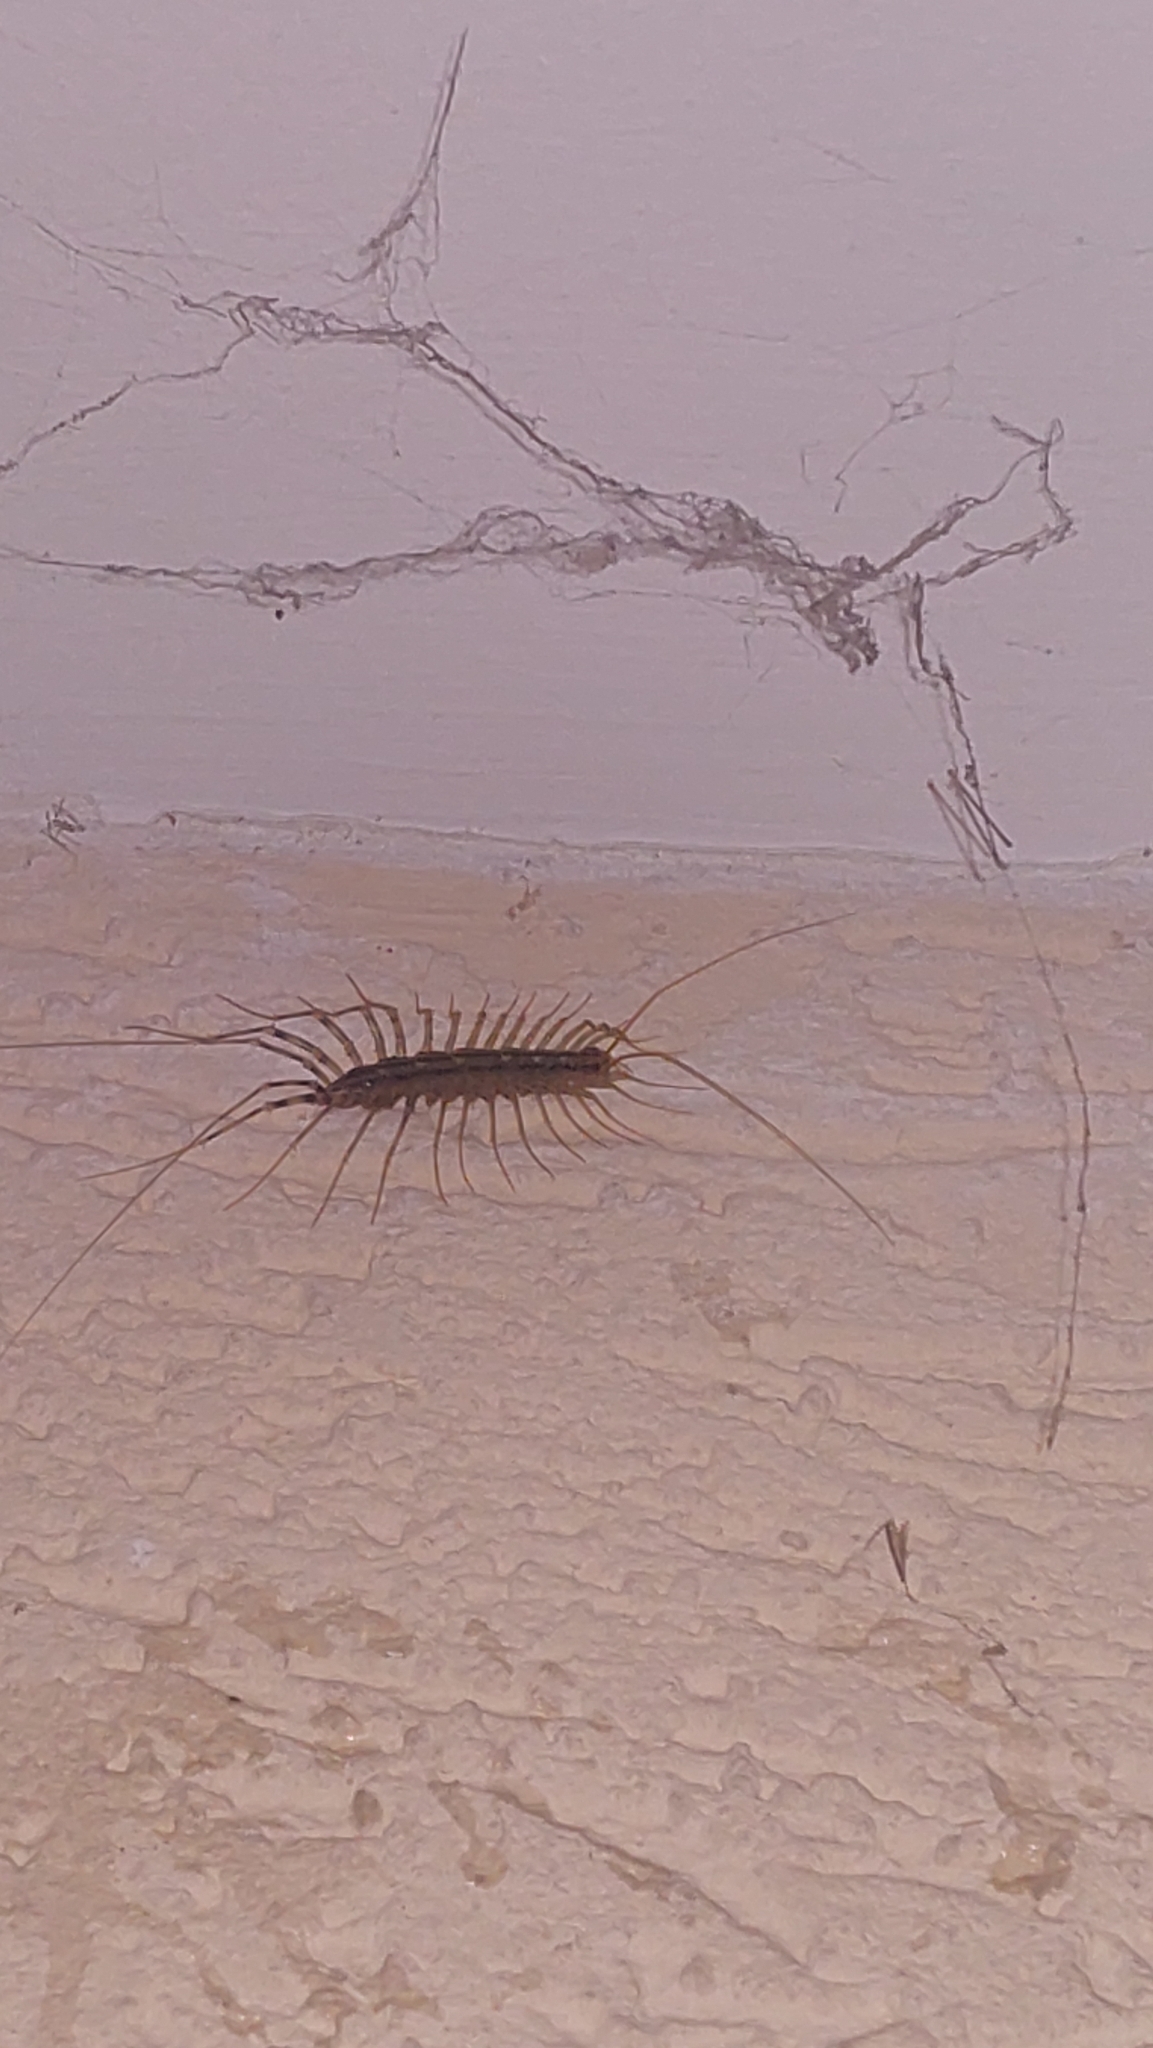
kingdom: Animalia
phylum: Arthropoda
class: Chilopoda
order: Scutigeromorpha
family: Scutigeridae
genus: Scutigera
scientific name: Scutigera coleoptrata
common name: House centipede
